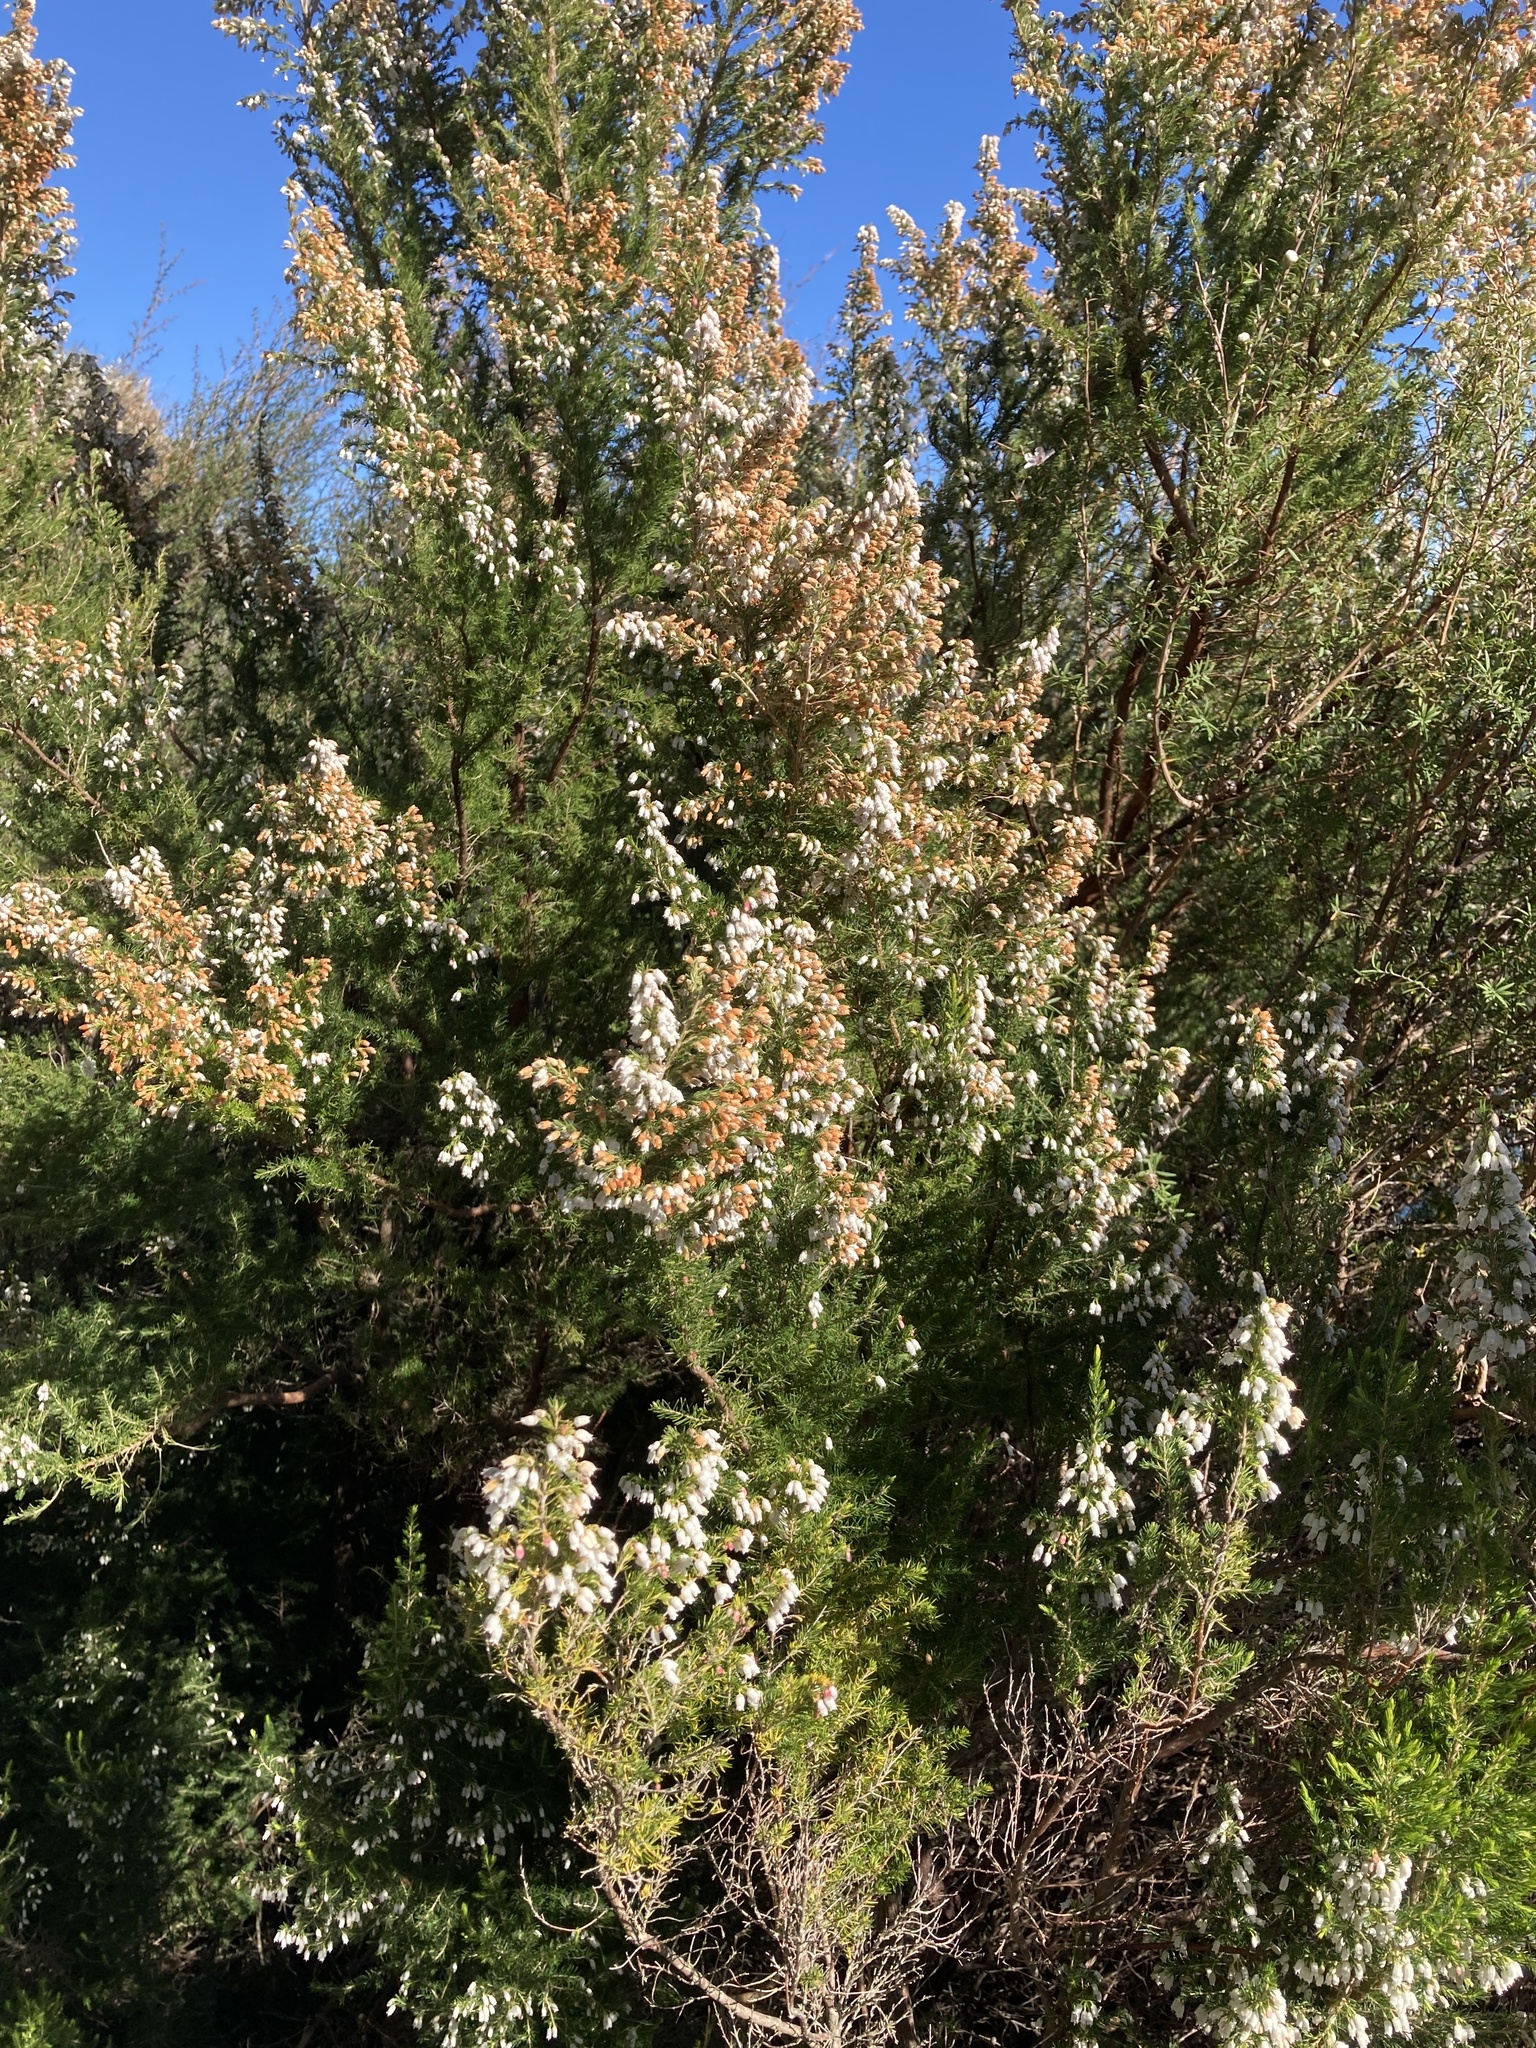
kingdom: Plantae
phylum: Tracheophyta
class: Magnoliopsida
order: Ericales
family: Ericaceae
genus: Erica
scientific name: Erica lusitanica
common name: Spanish heath
